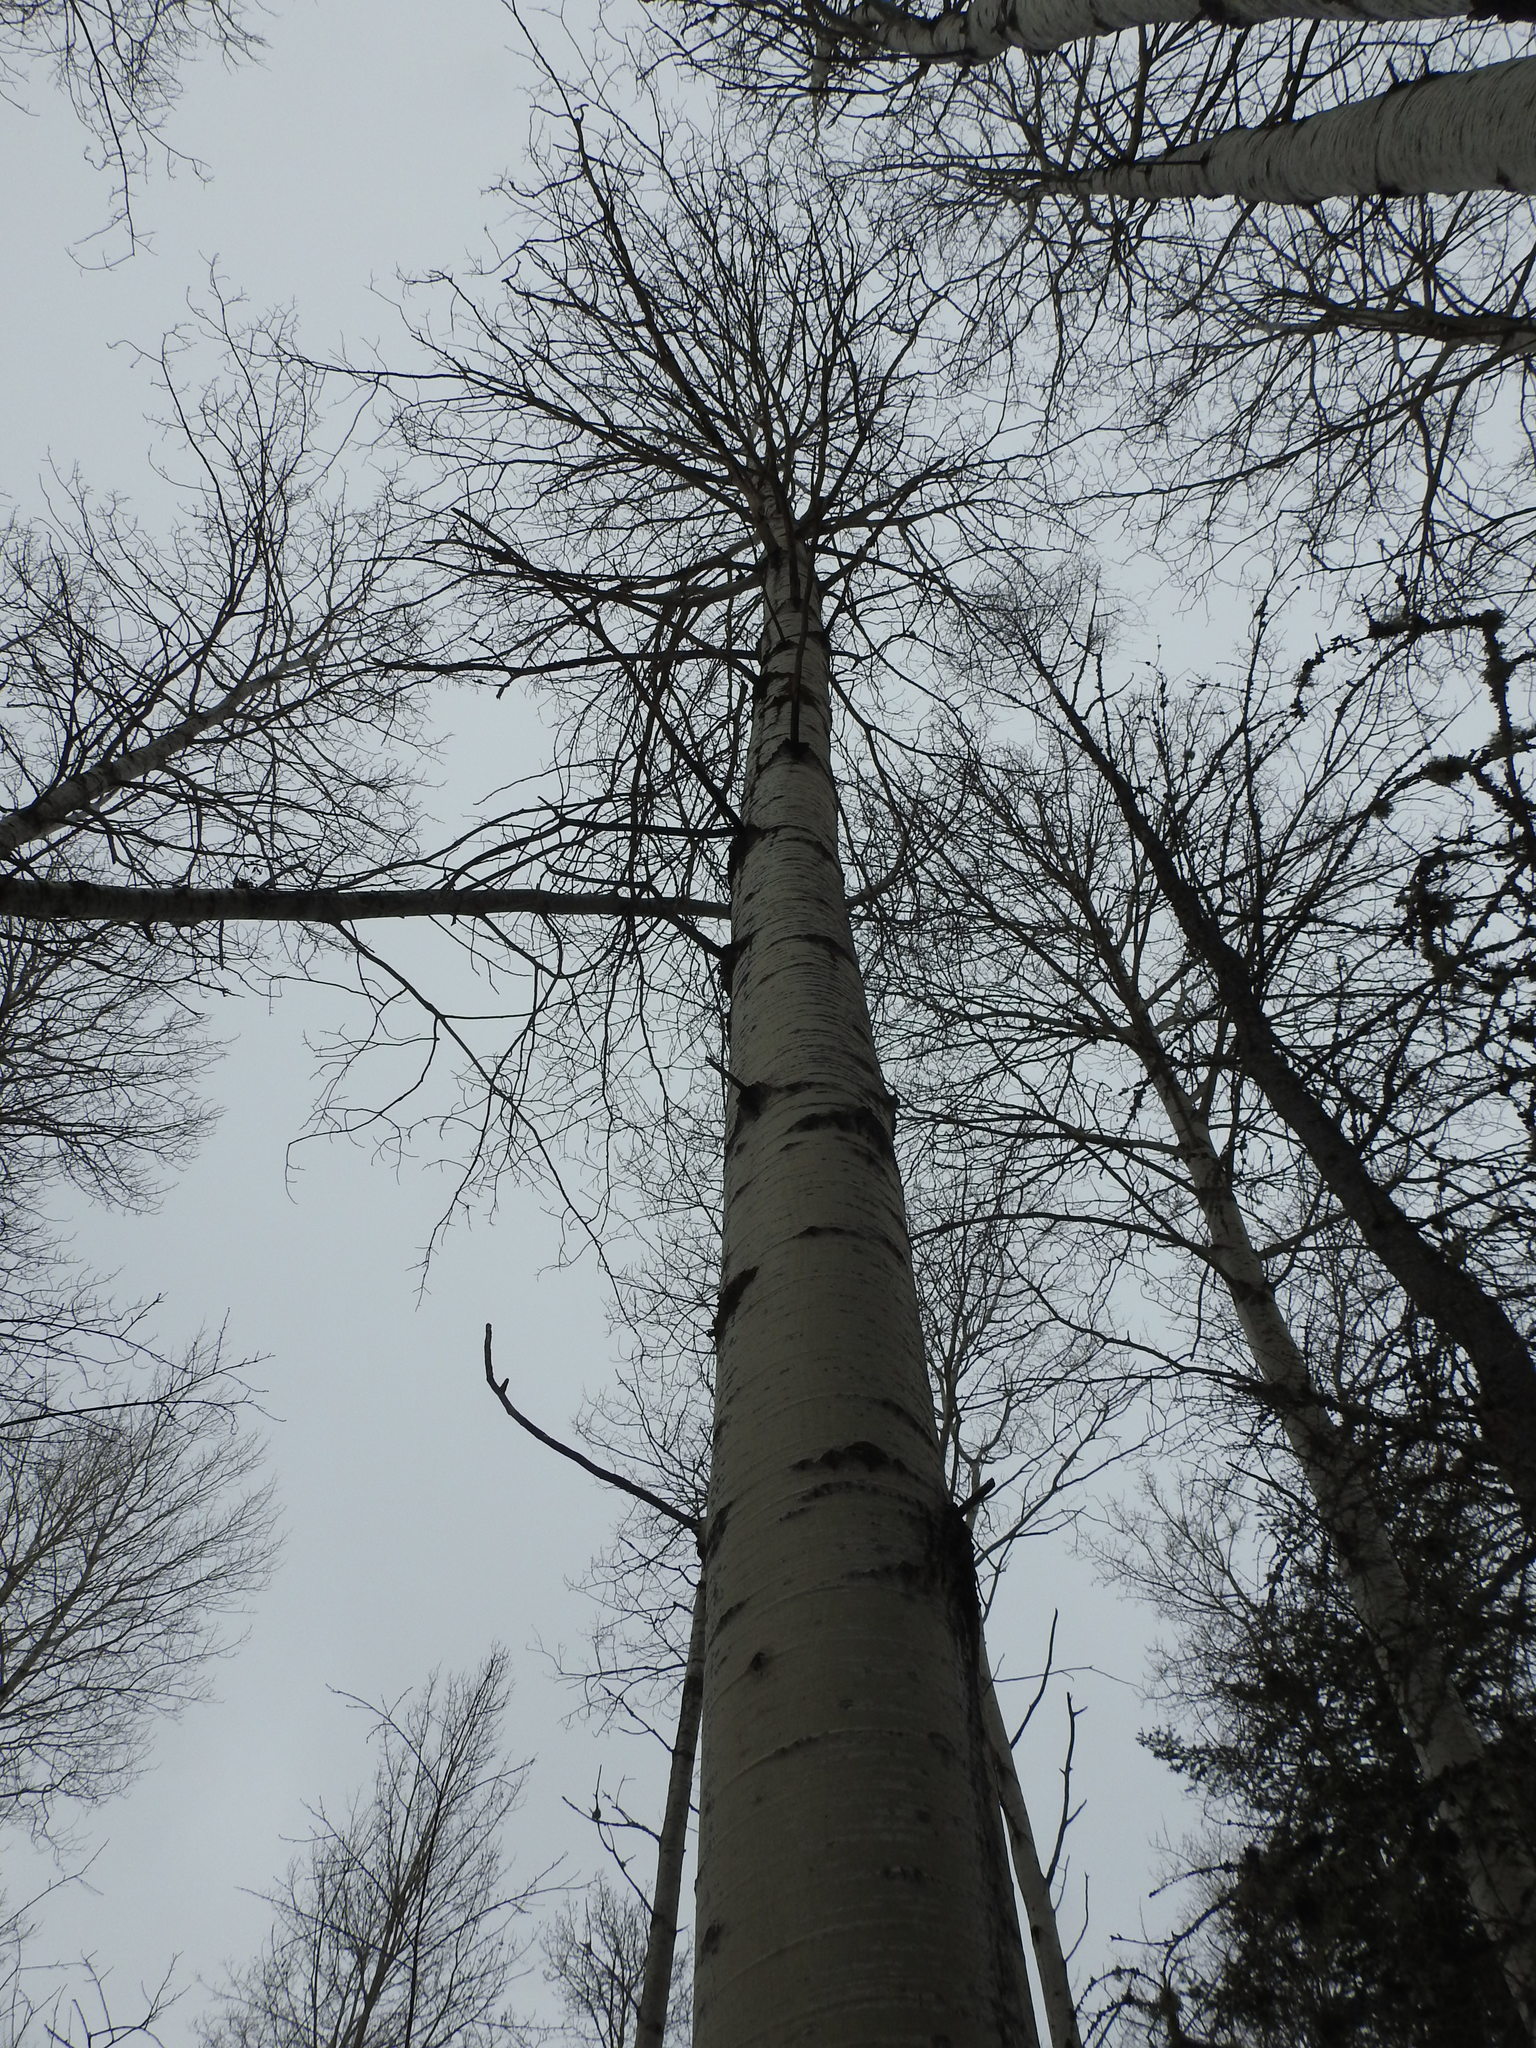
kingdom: Plantae
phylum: Tracheophyta
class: Magnoliopsida
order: Malpighiales
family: Salicaceae
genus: Populus
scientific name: Populus tremuloides
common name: Quaking aspen
